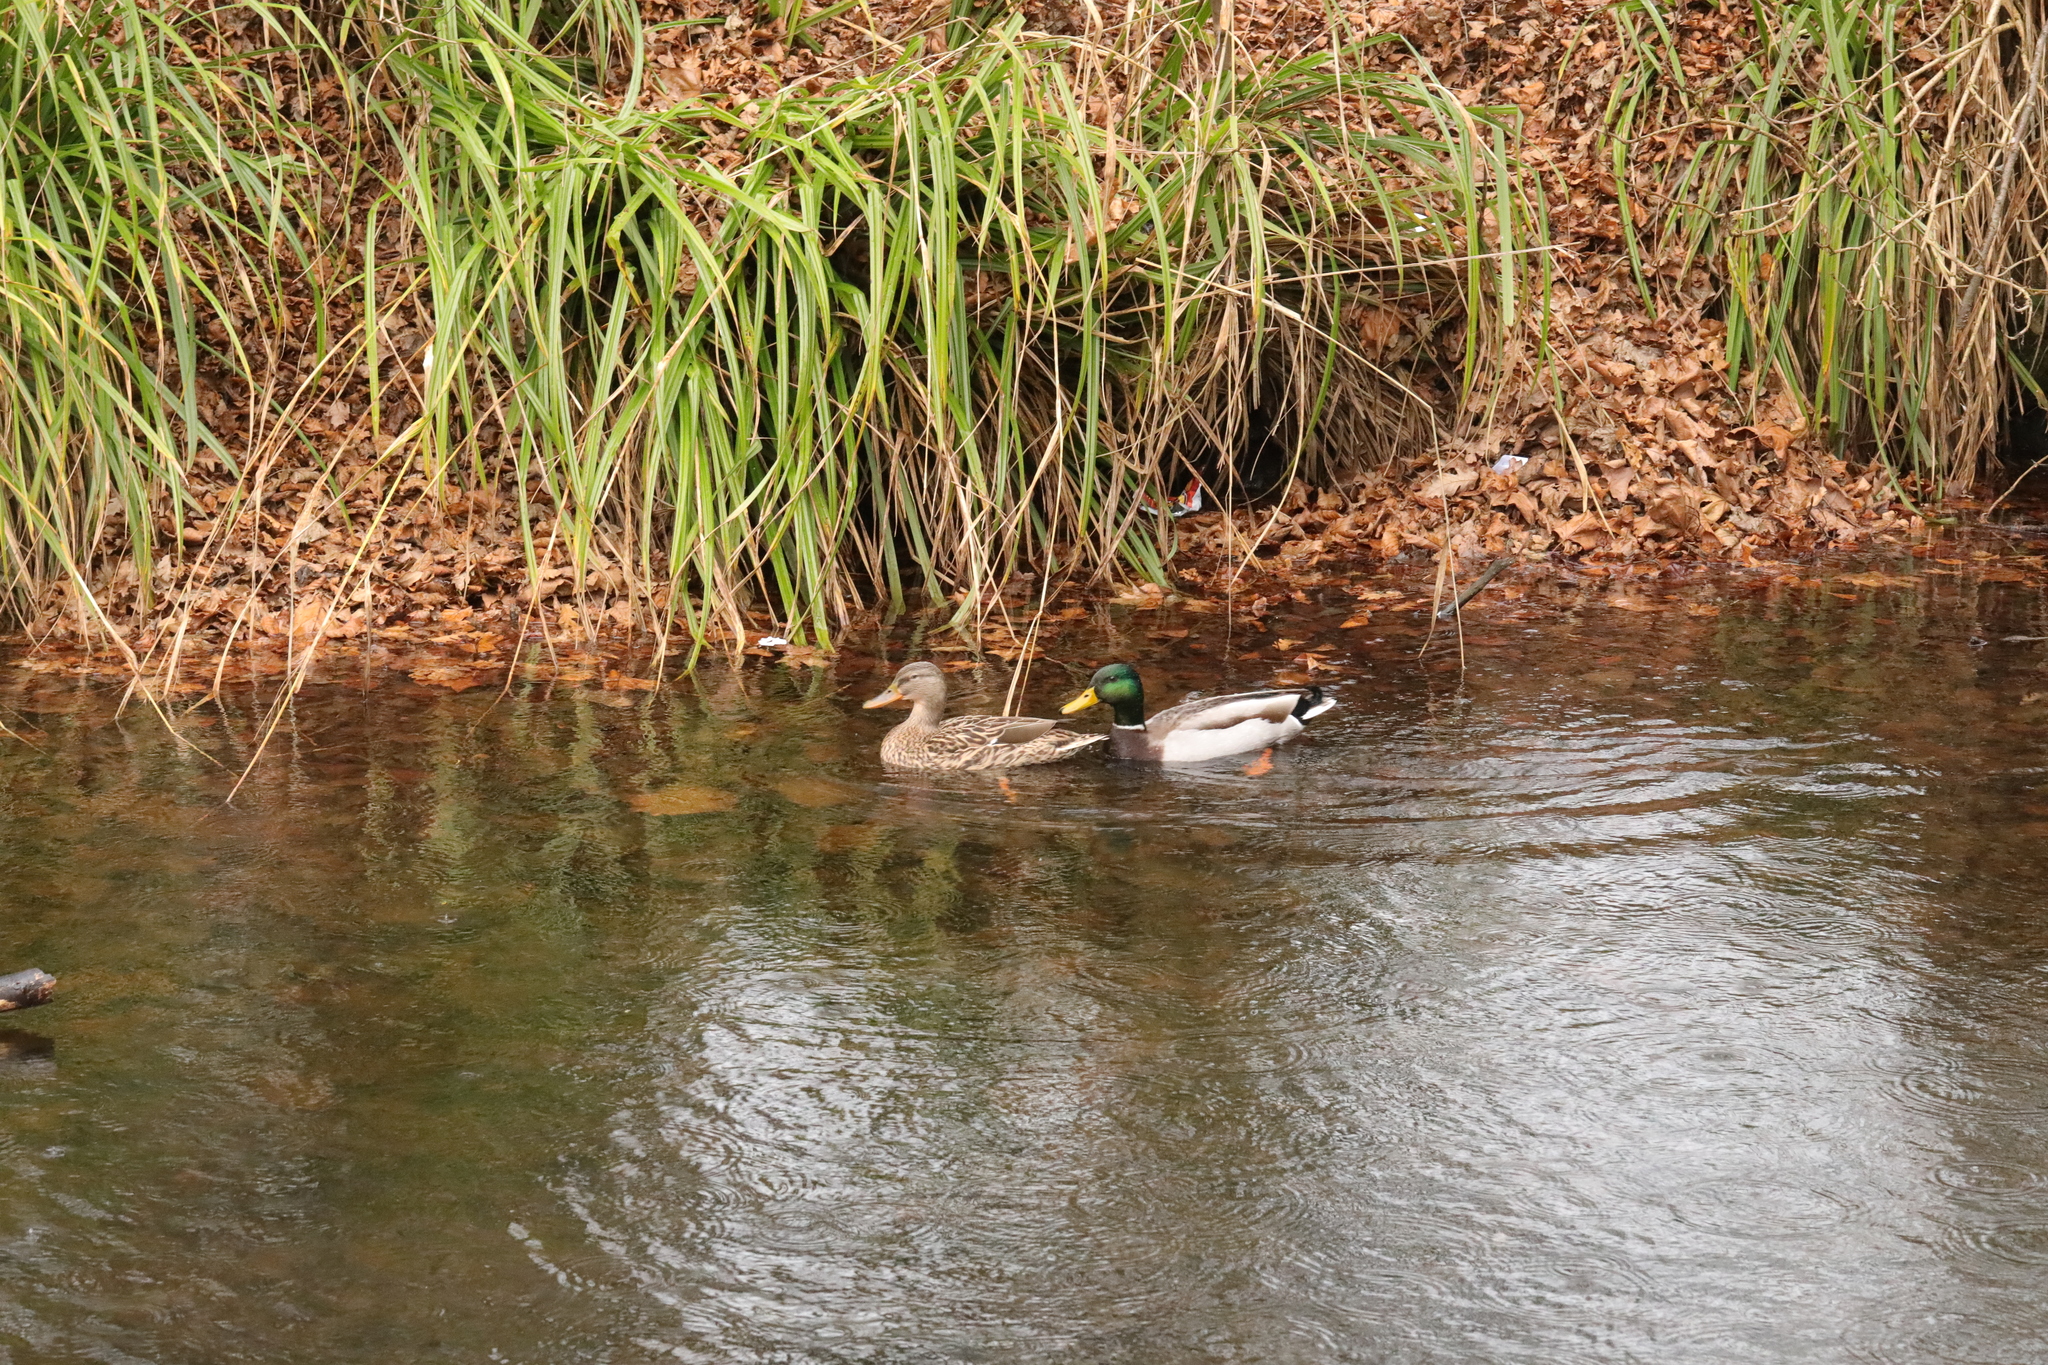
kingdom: Animalia
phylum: Chordata
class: Aves
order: Anseriformes
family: Anatidae
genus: Anas
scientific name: Anas platyrhynchos
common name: Mallard
